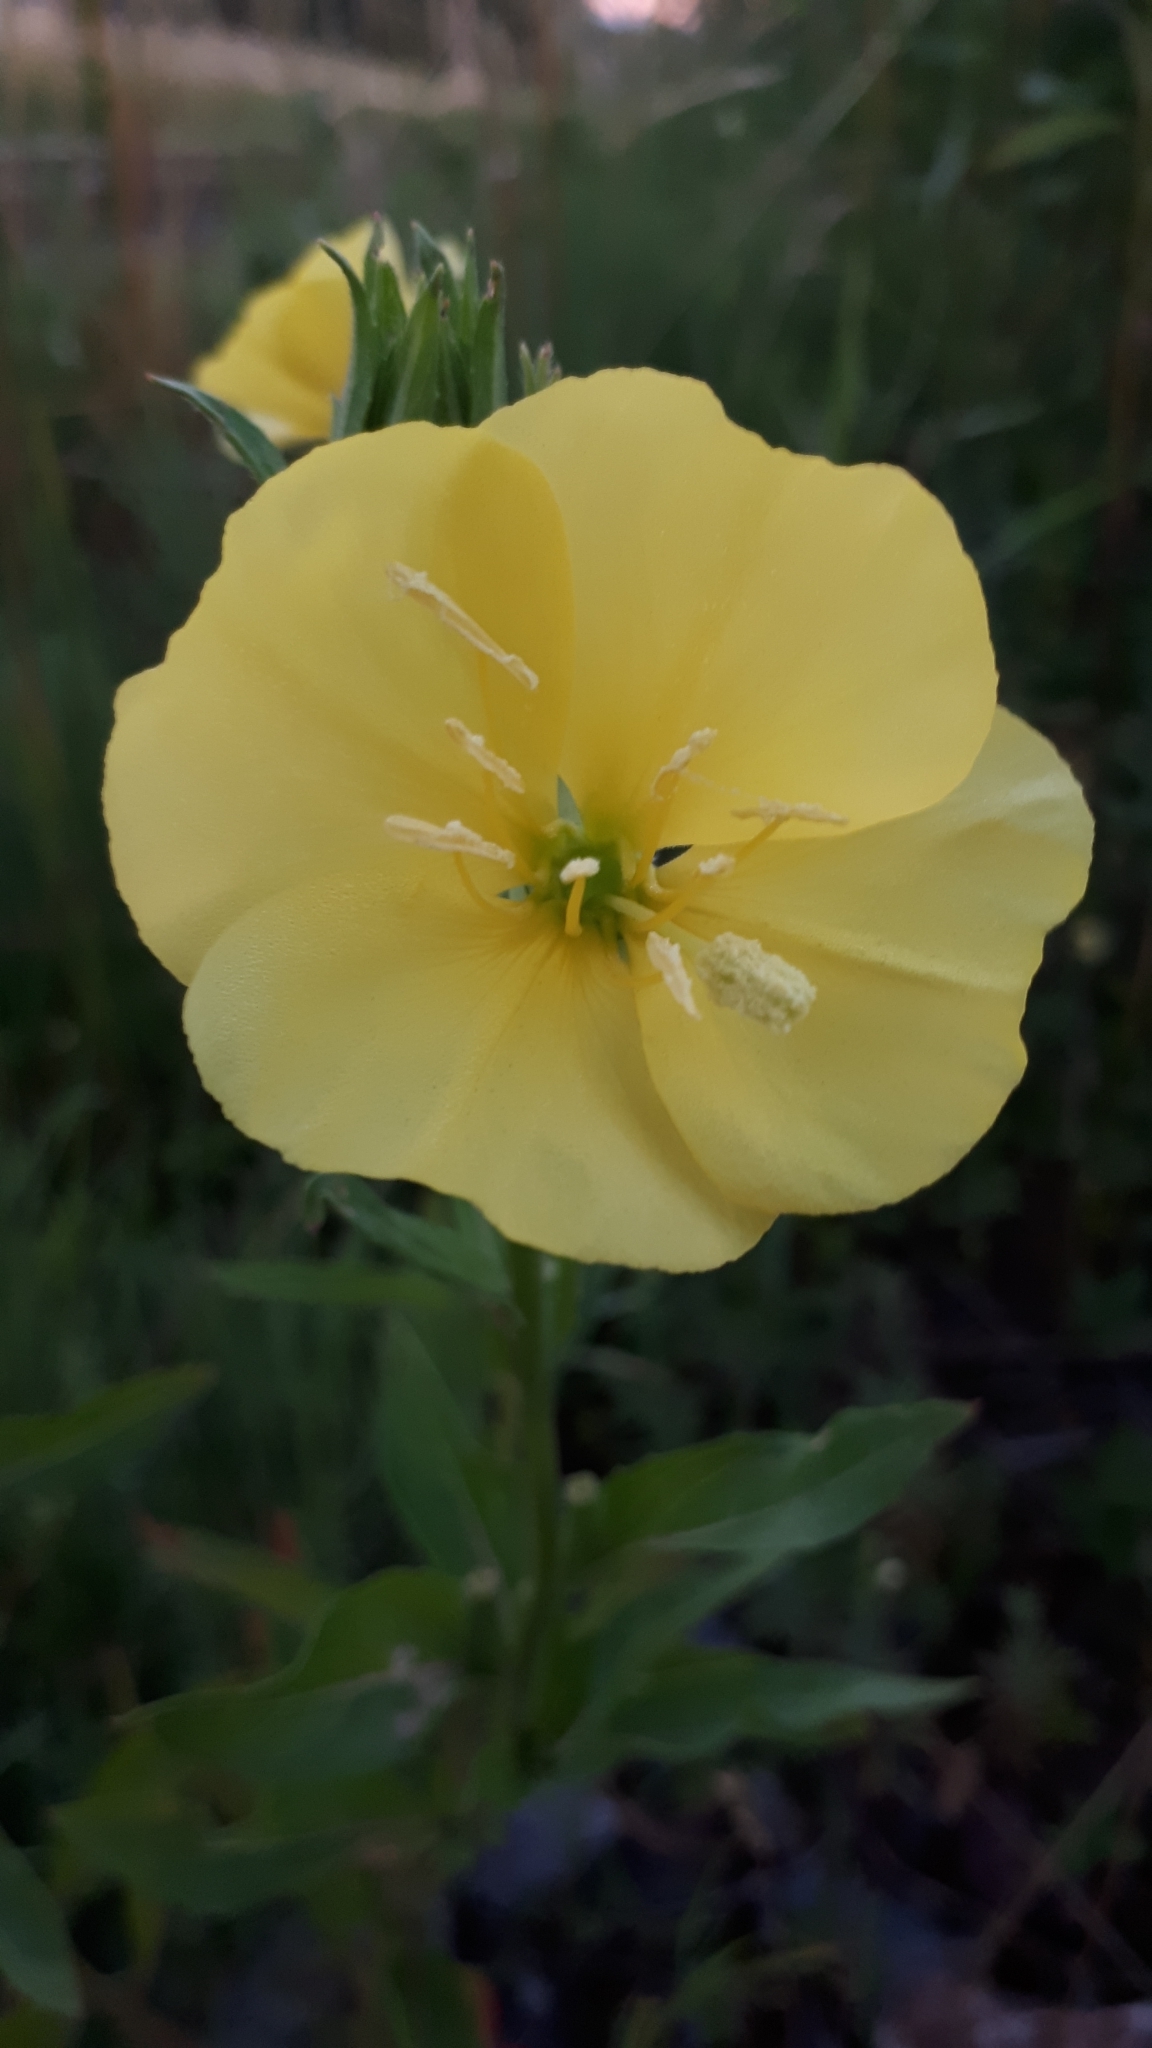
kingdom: Plantae
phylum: Tracheophyta
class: Magnoliopsida
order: Myrtales
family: Onagraceae
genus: Oenothera
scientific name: Oenothera biennis
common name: Common evening-primrose
